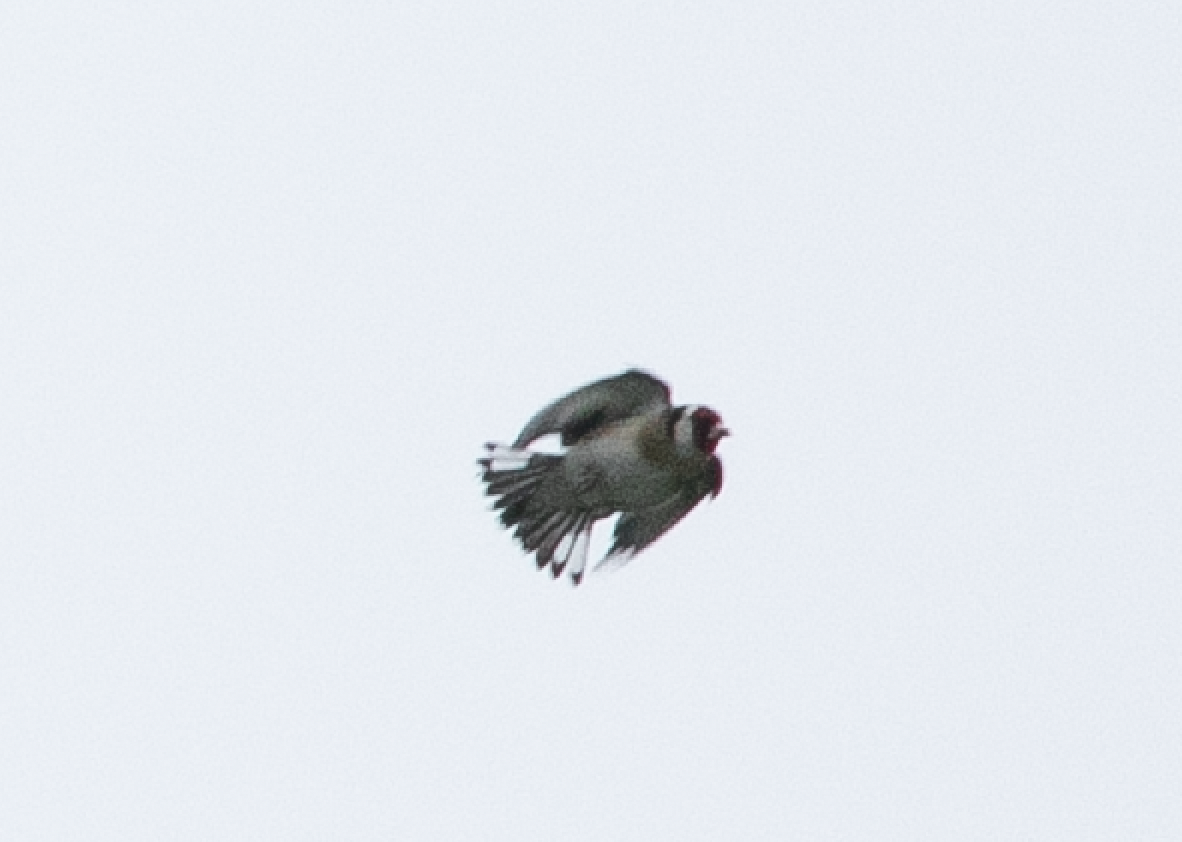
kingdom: Animalia
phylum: Chordata
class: Aves
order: Passeriformes
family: Fringillidae
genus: Carduelis
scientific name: Carduelis carduelis
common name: European goldfinch
